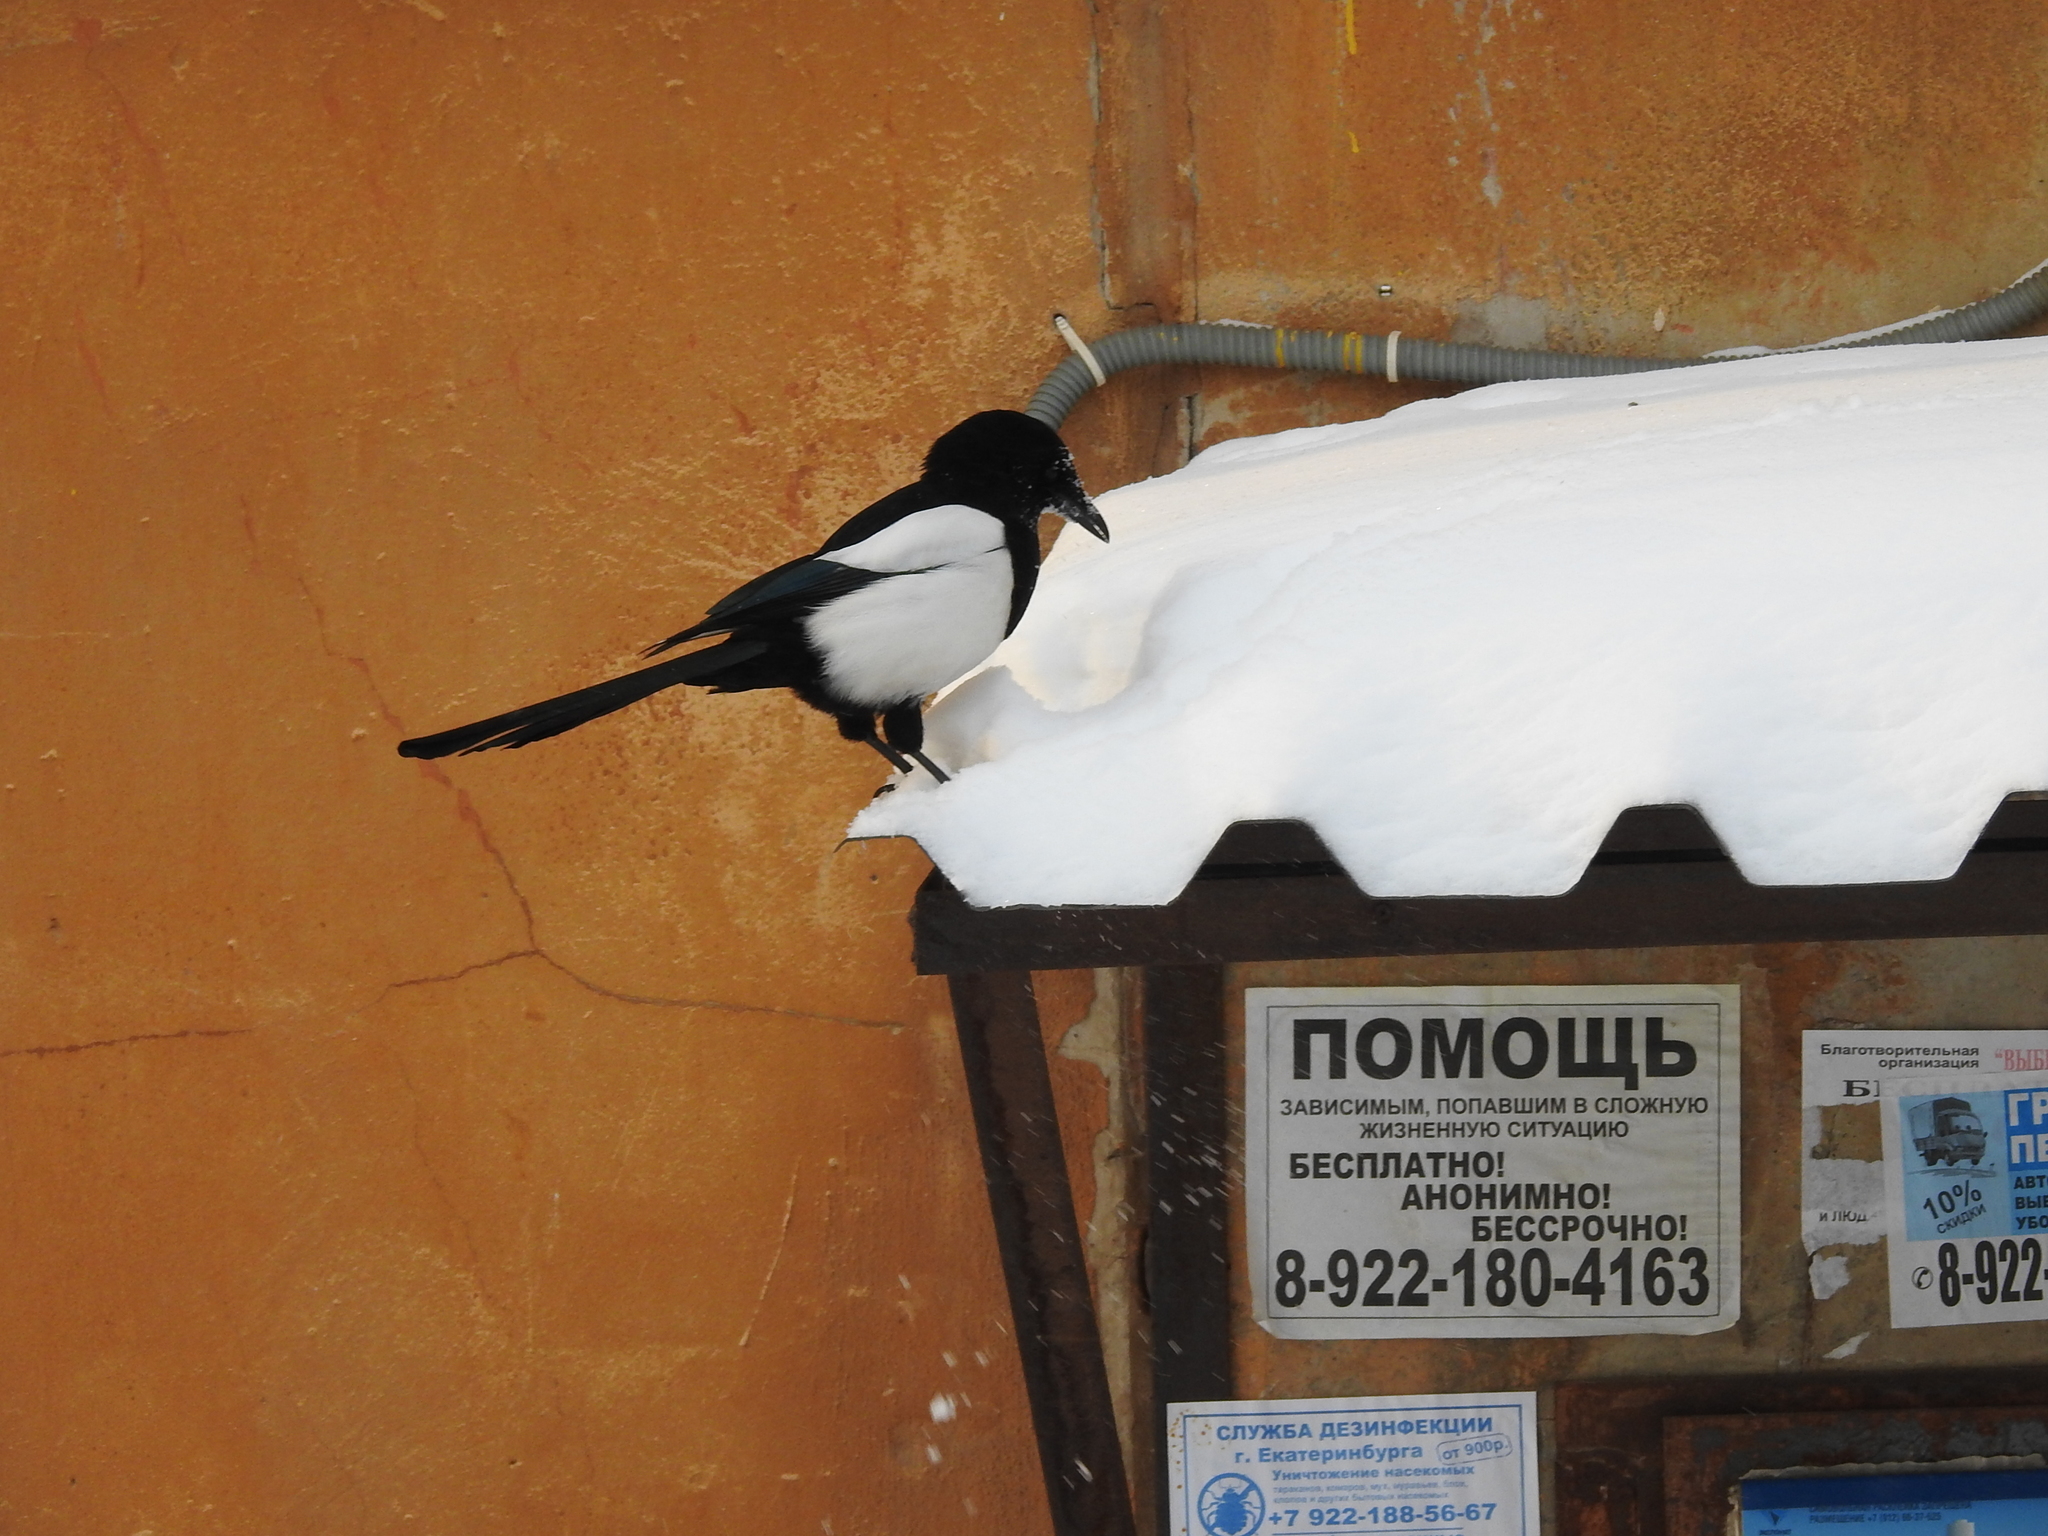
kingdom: Animalia
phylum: Chordata
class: Aves
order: Passeriformes
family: Corvidae
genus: Pica
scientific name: Pica pica
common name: Eurasian magpie
